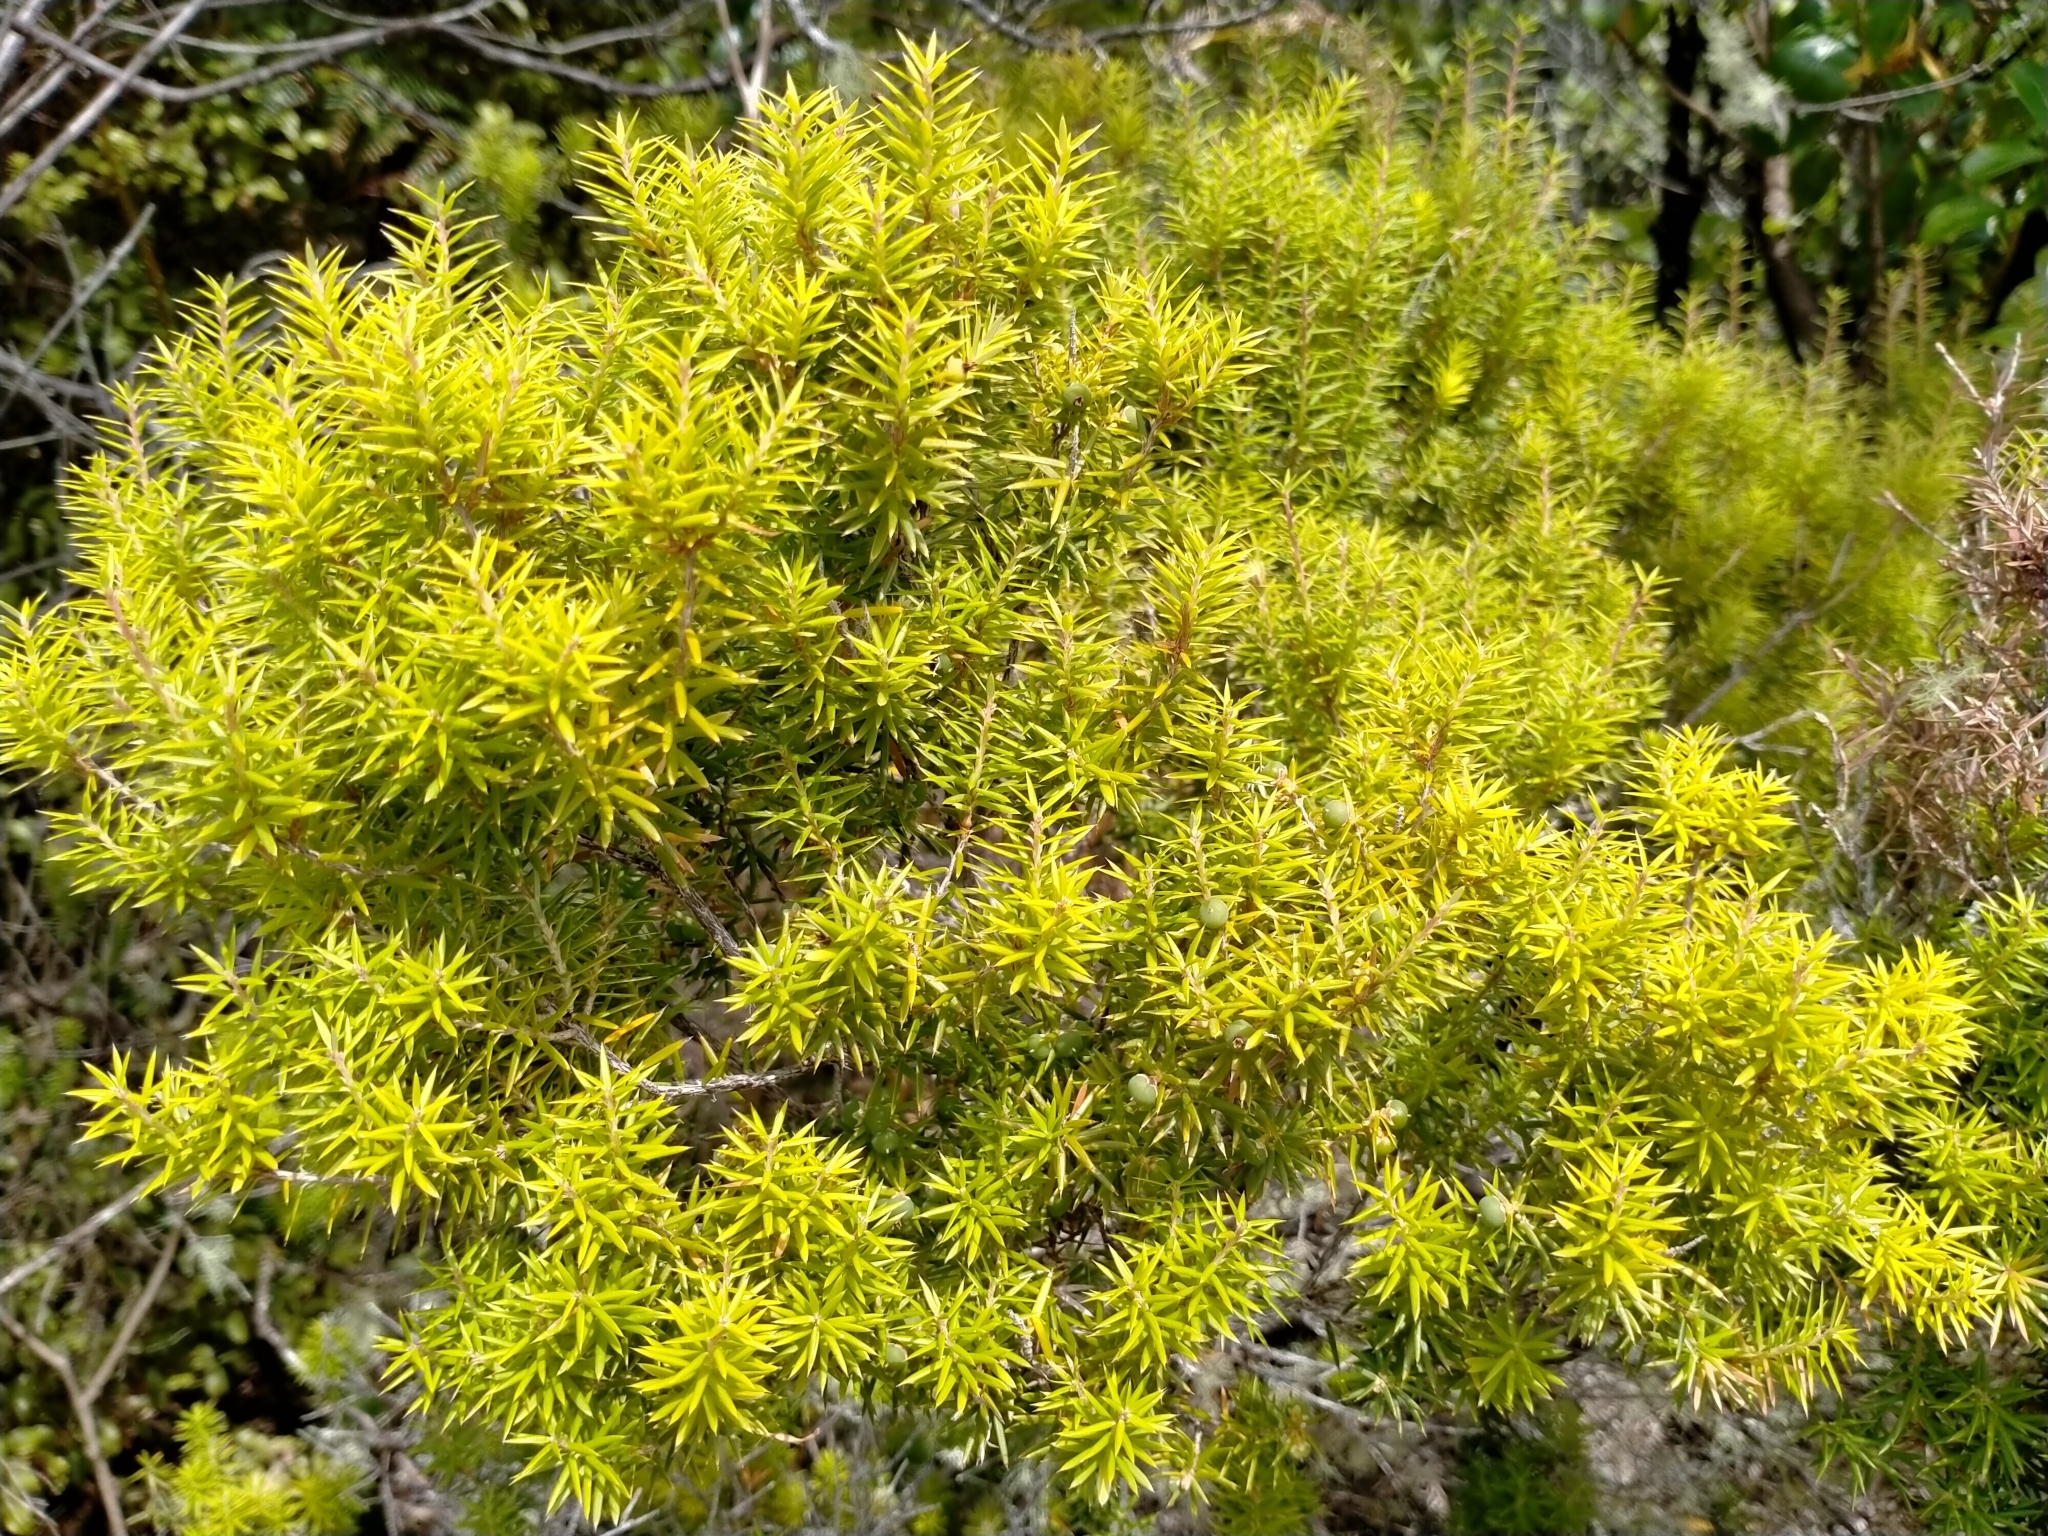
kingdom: Plantae
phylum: Tracheophyta
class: Magnoliopsida
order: Ericales
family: Ericaceae
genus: Leptecophylla
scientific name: Leptecophylla juniperina
